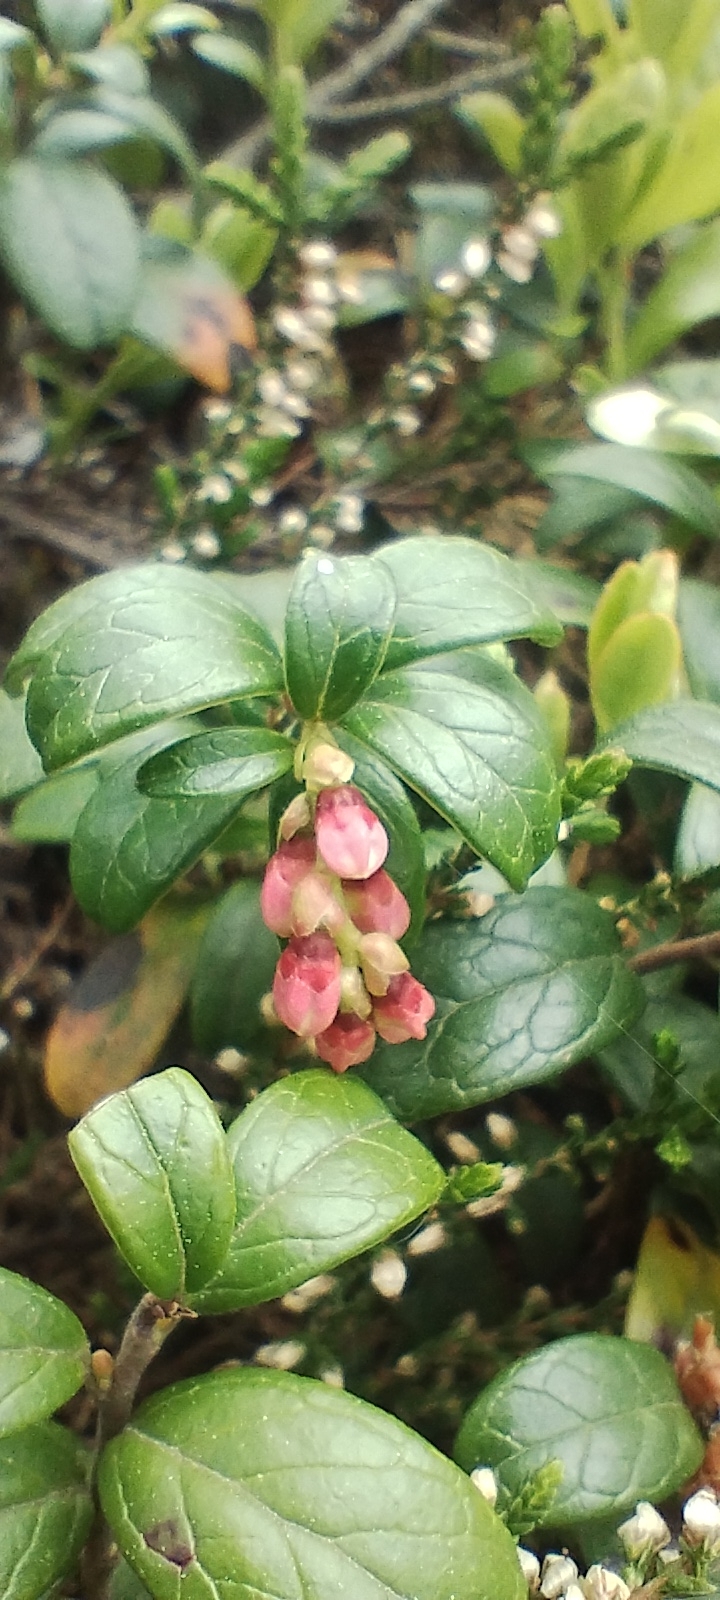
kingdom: Plantae
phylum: Tracheophyta
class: Magnoliopsida
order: Ericales
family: Ericaceae
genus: Vaccinium
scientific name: Vaccinium vitis-idaea
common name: Cowberry
